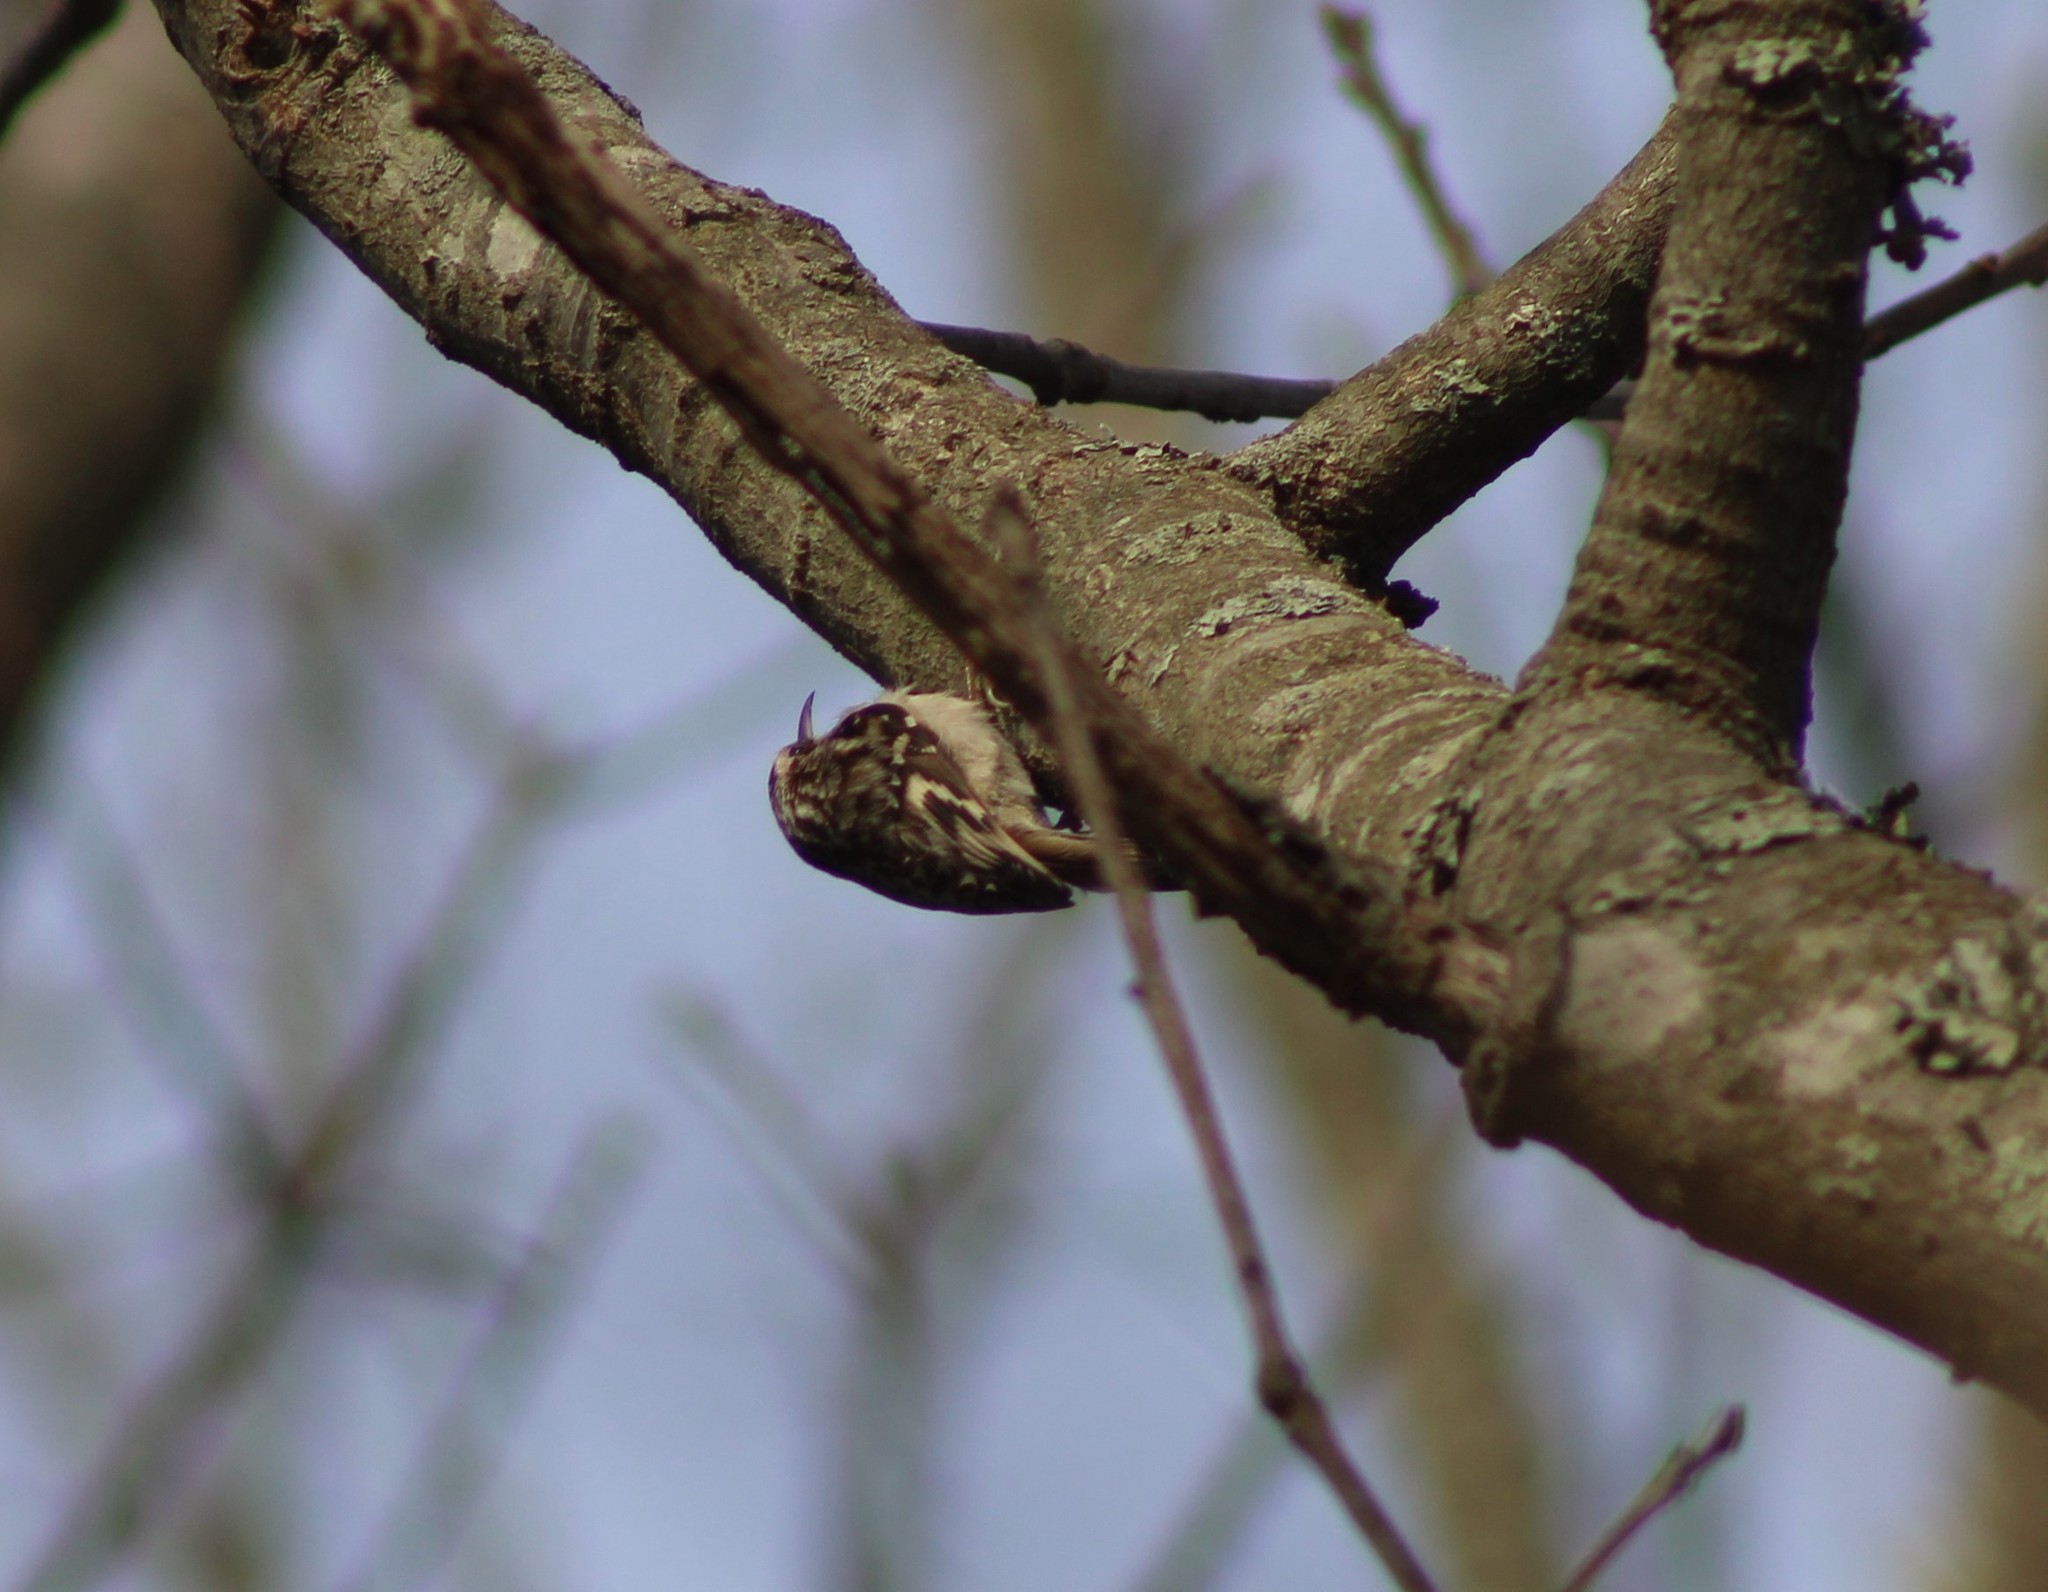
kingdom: Animalia
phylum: Chordata
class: Aves
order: Passeriformes
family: Certhiidae
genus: Certhia
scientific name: Certhia americana
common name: Brown creeper
